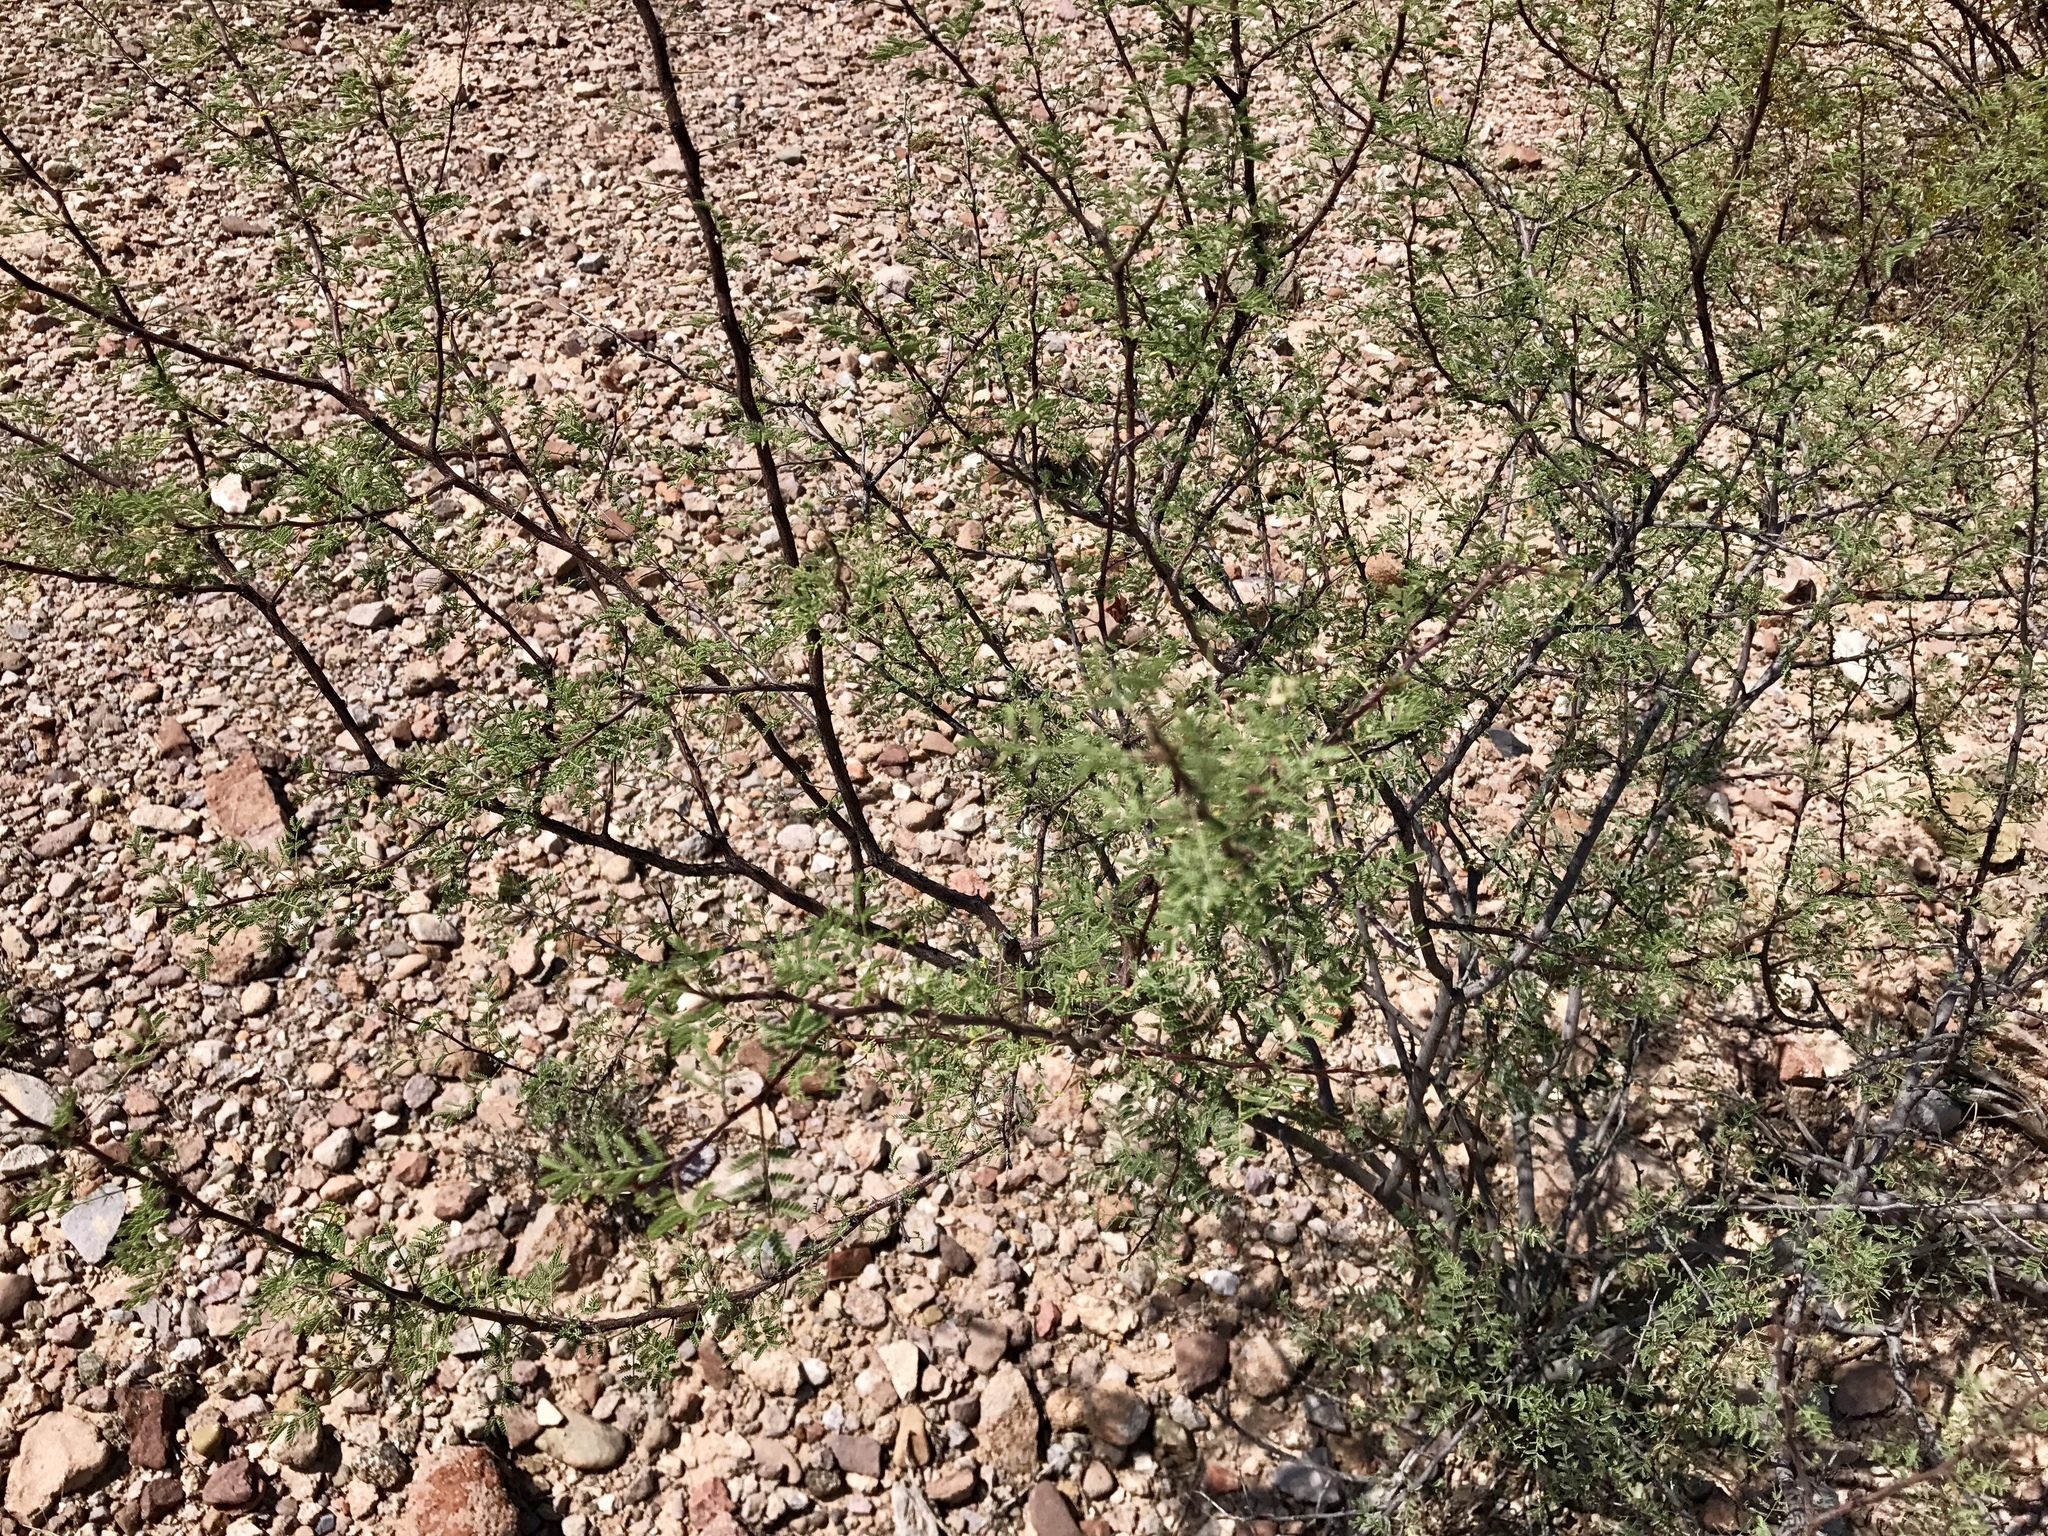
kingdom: Plantae
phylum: Tracheophyta
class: Magnoliopsida
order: Fabales
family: Fabaceae
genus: Vachellia
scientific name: Vachellia constricta
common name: Mescat acacia
